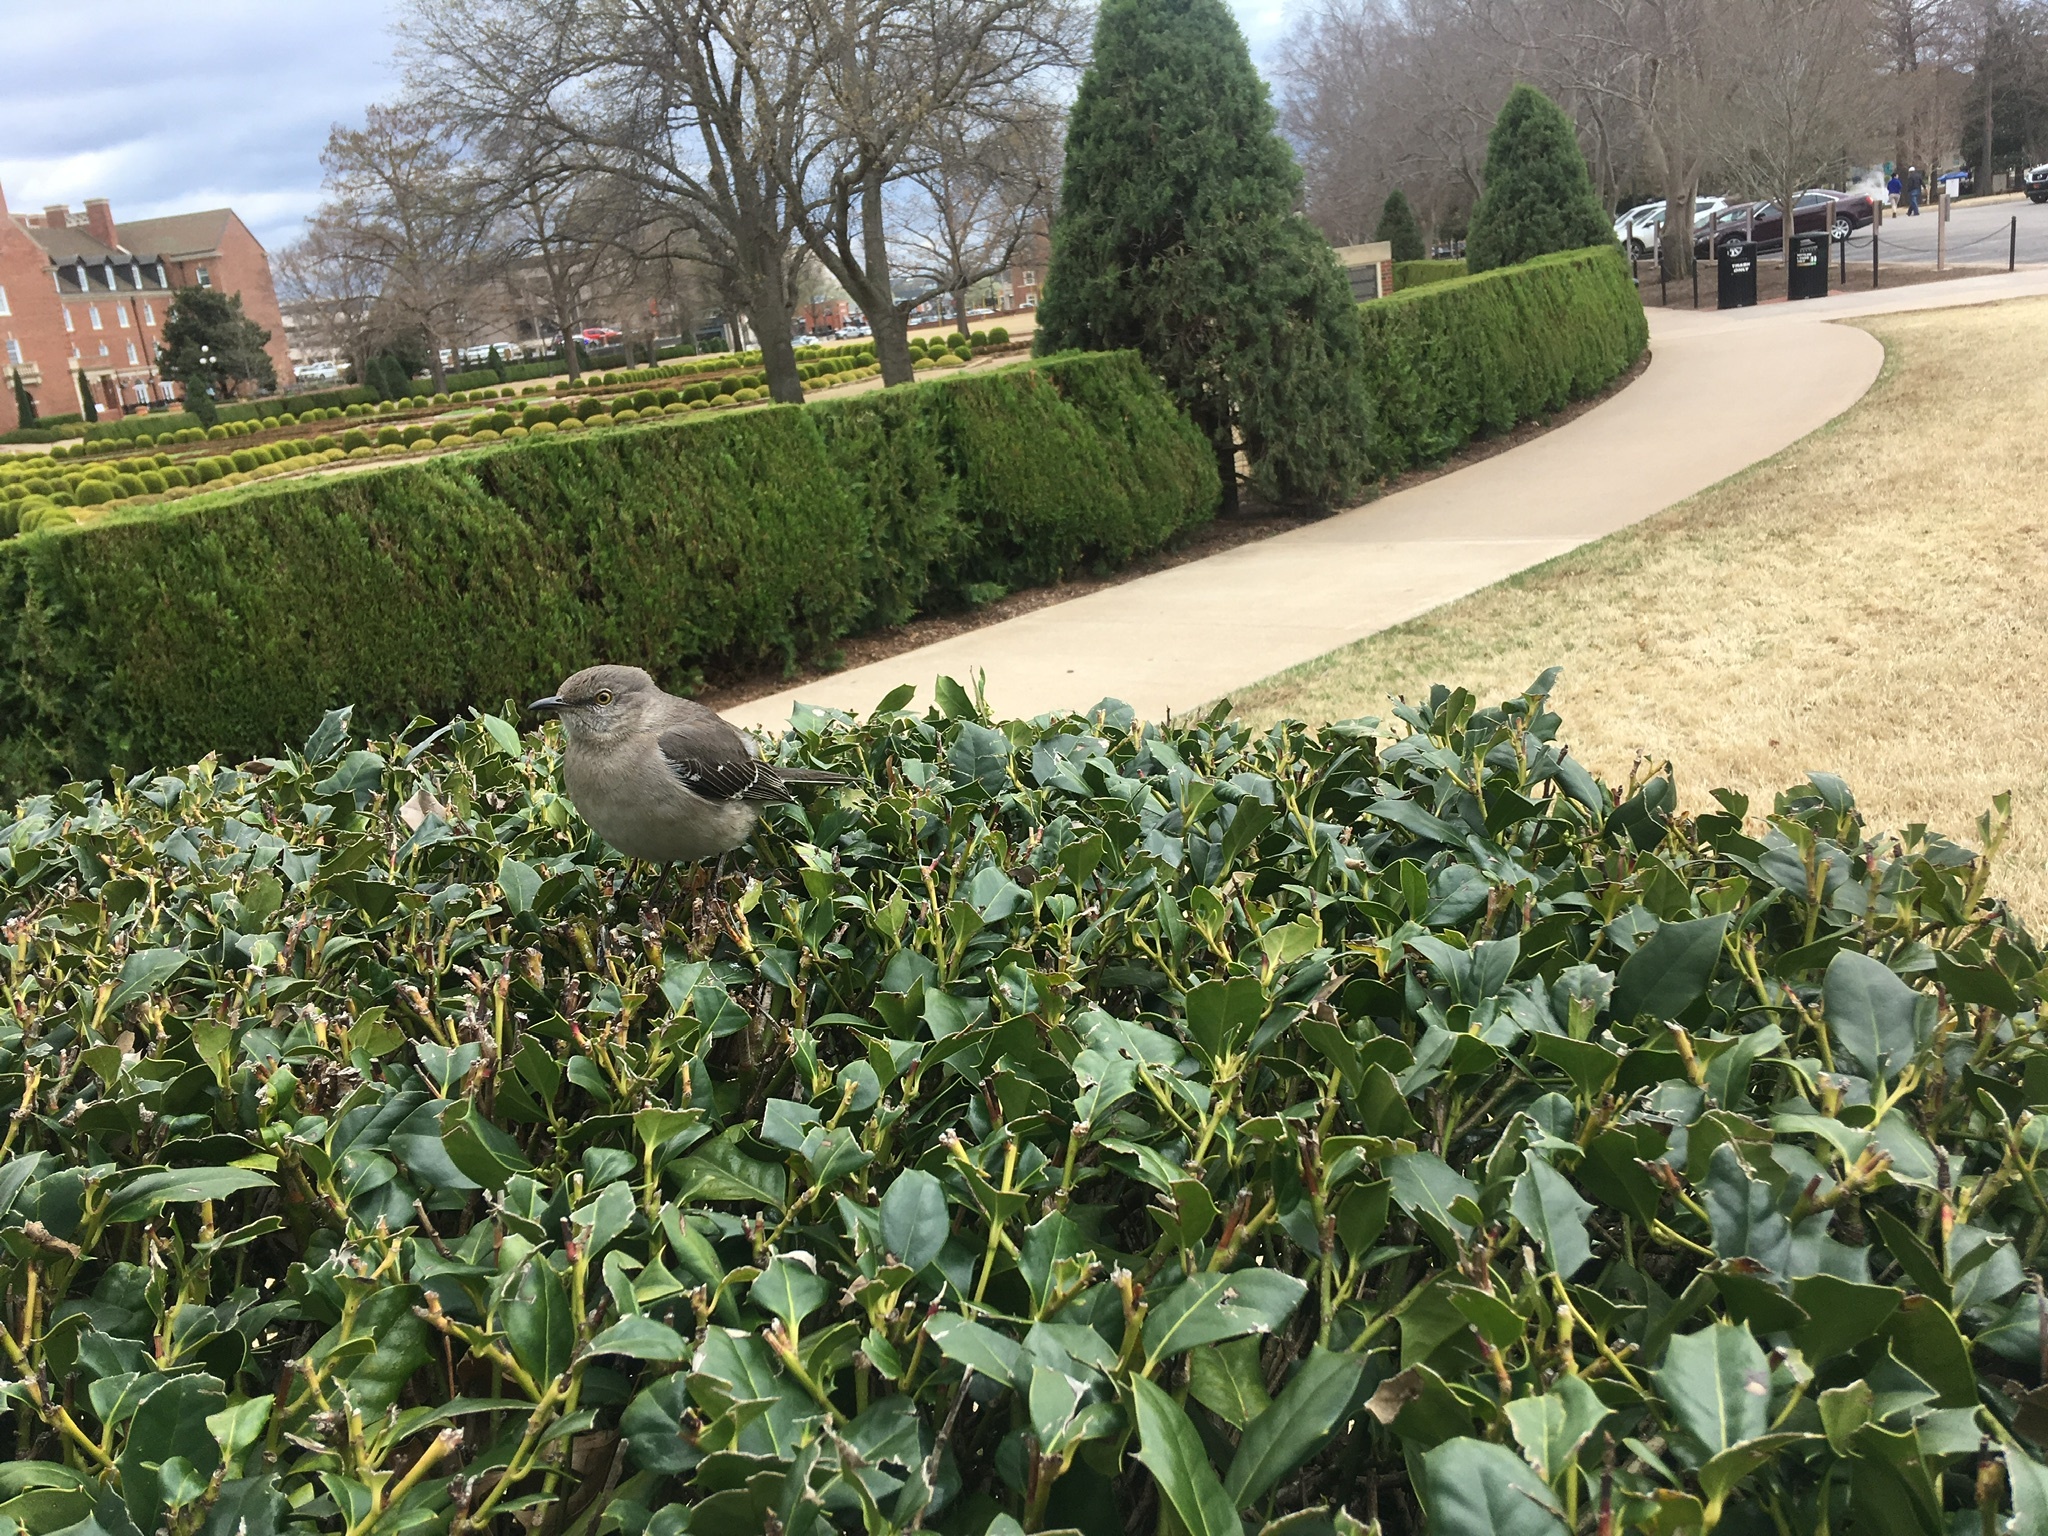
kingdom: Animalia
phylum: Chordata
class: Aves
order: Passeriformes
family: Mimidae
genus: Mimus
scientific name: Mimus polyglottos
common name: Northern mockingbird
